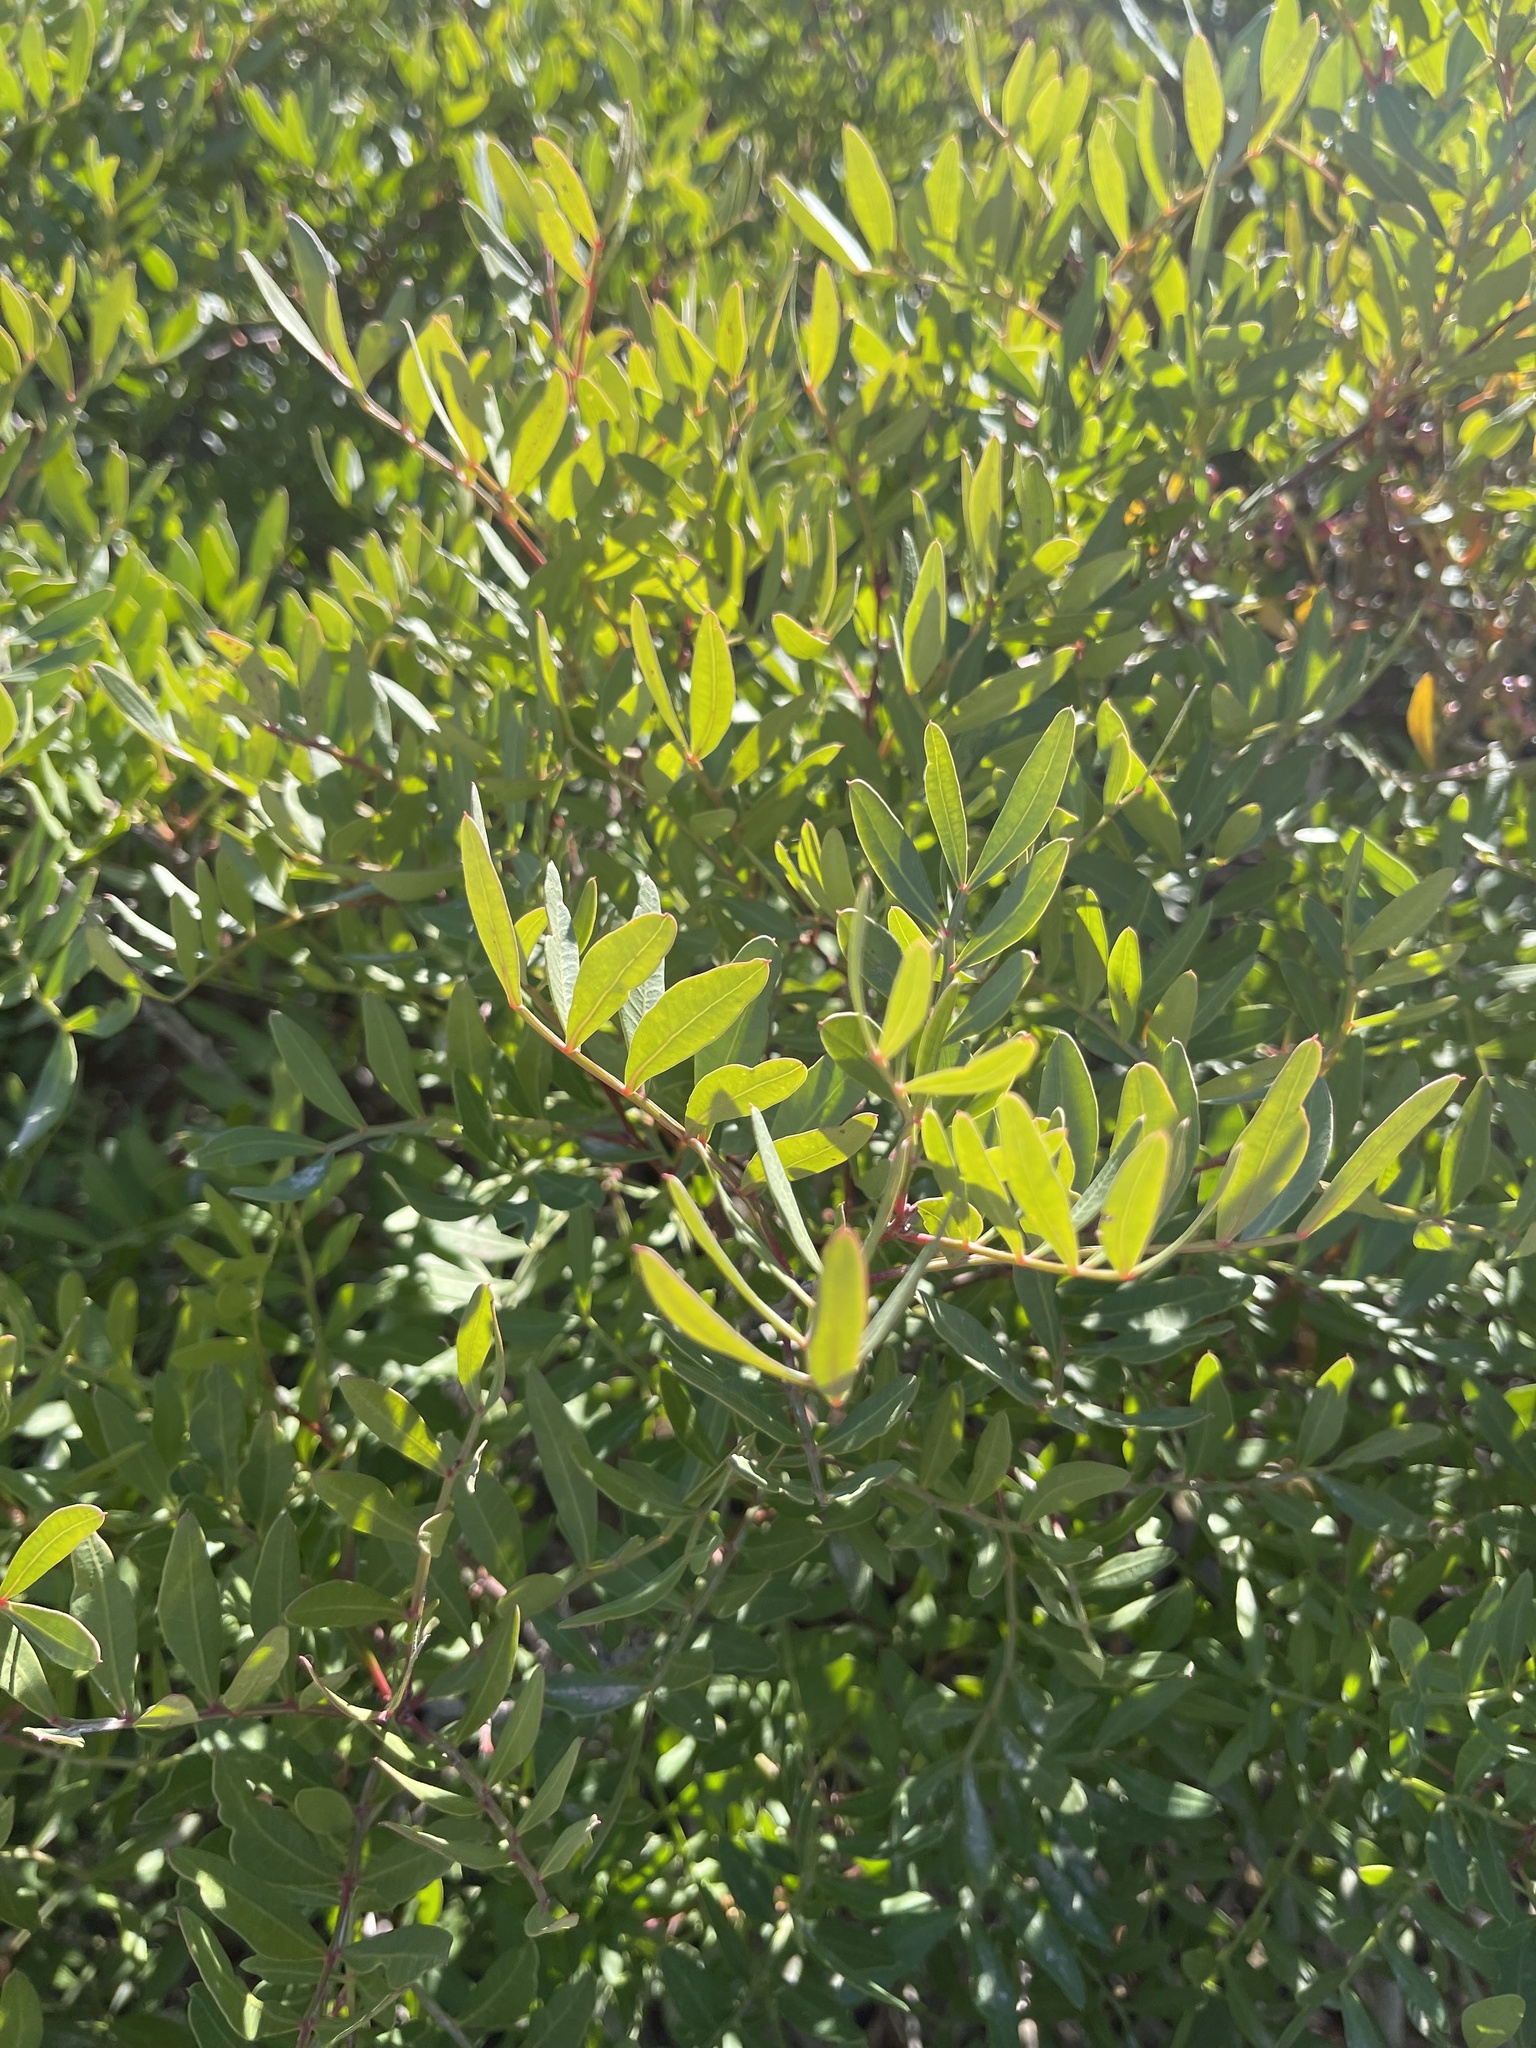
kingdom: Plantae
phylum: Tracheophyta
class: Magnoliopsida
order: Sapindales
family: Anacardiaceae
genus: Pistacia
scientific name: Pistacia lentiscus
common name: Lentisk
